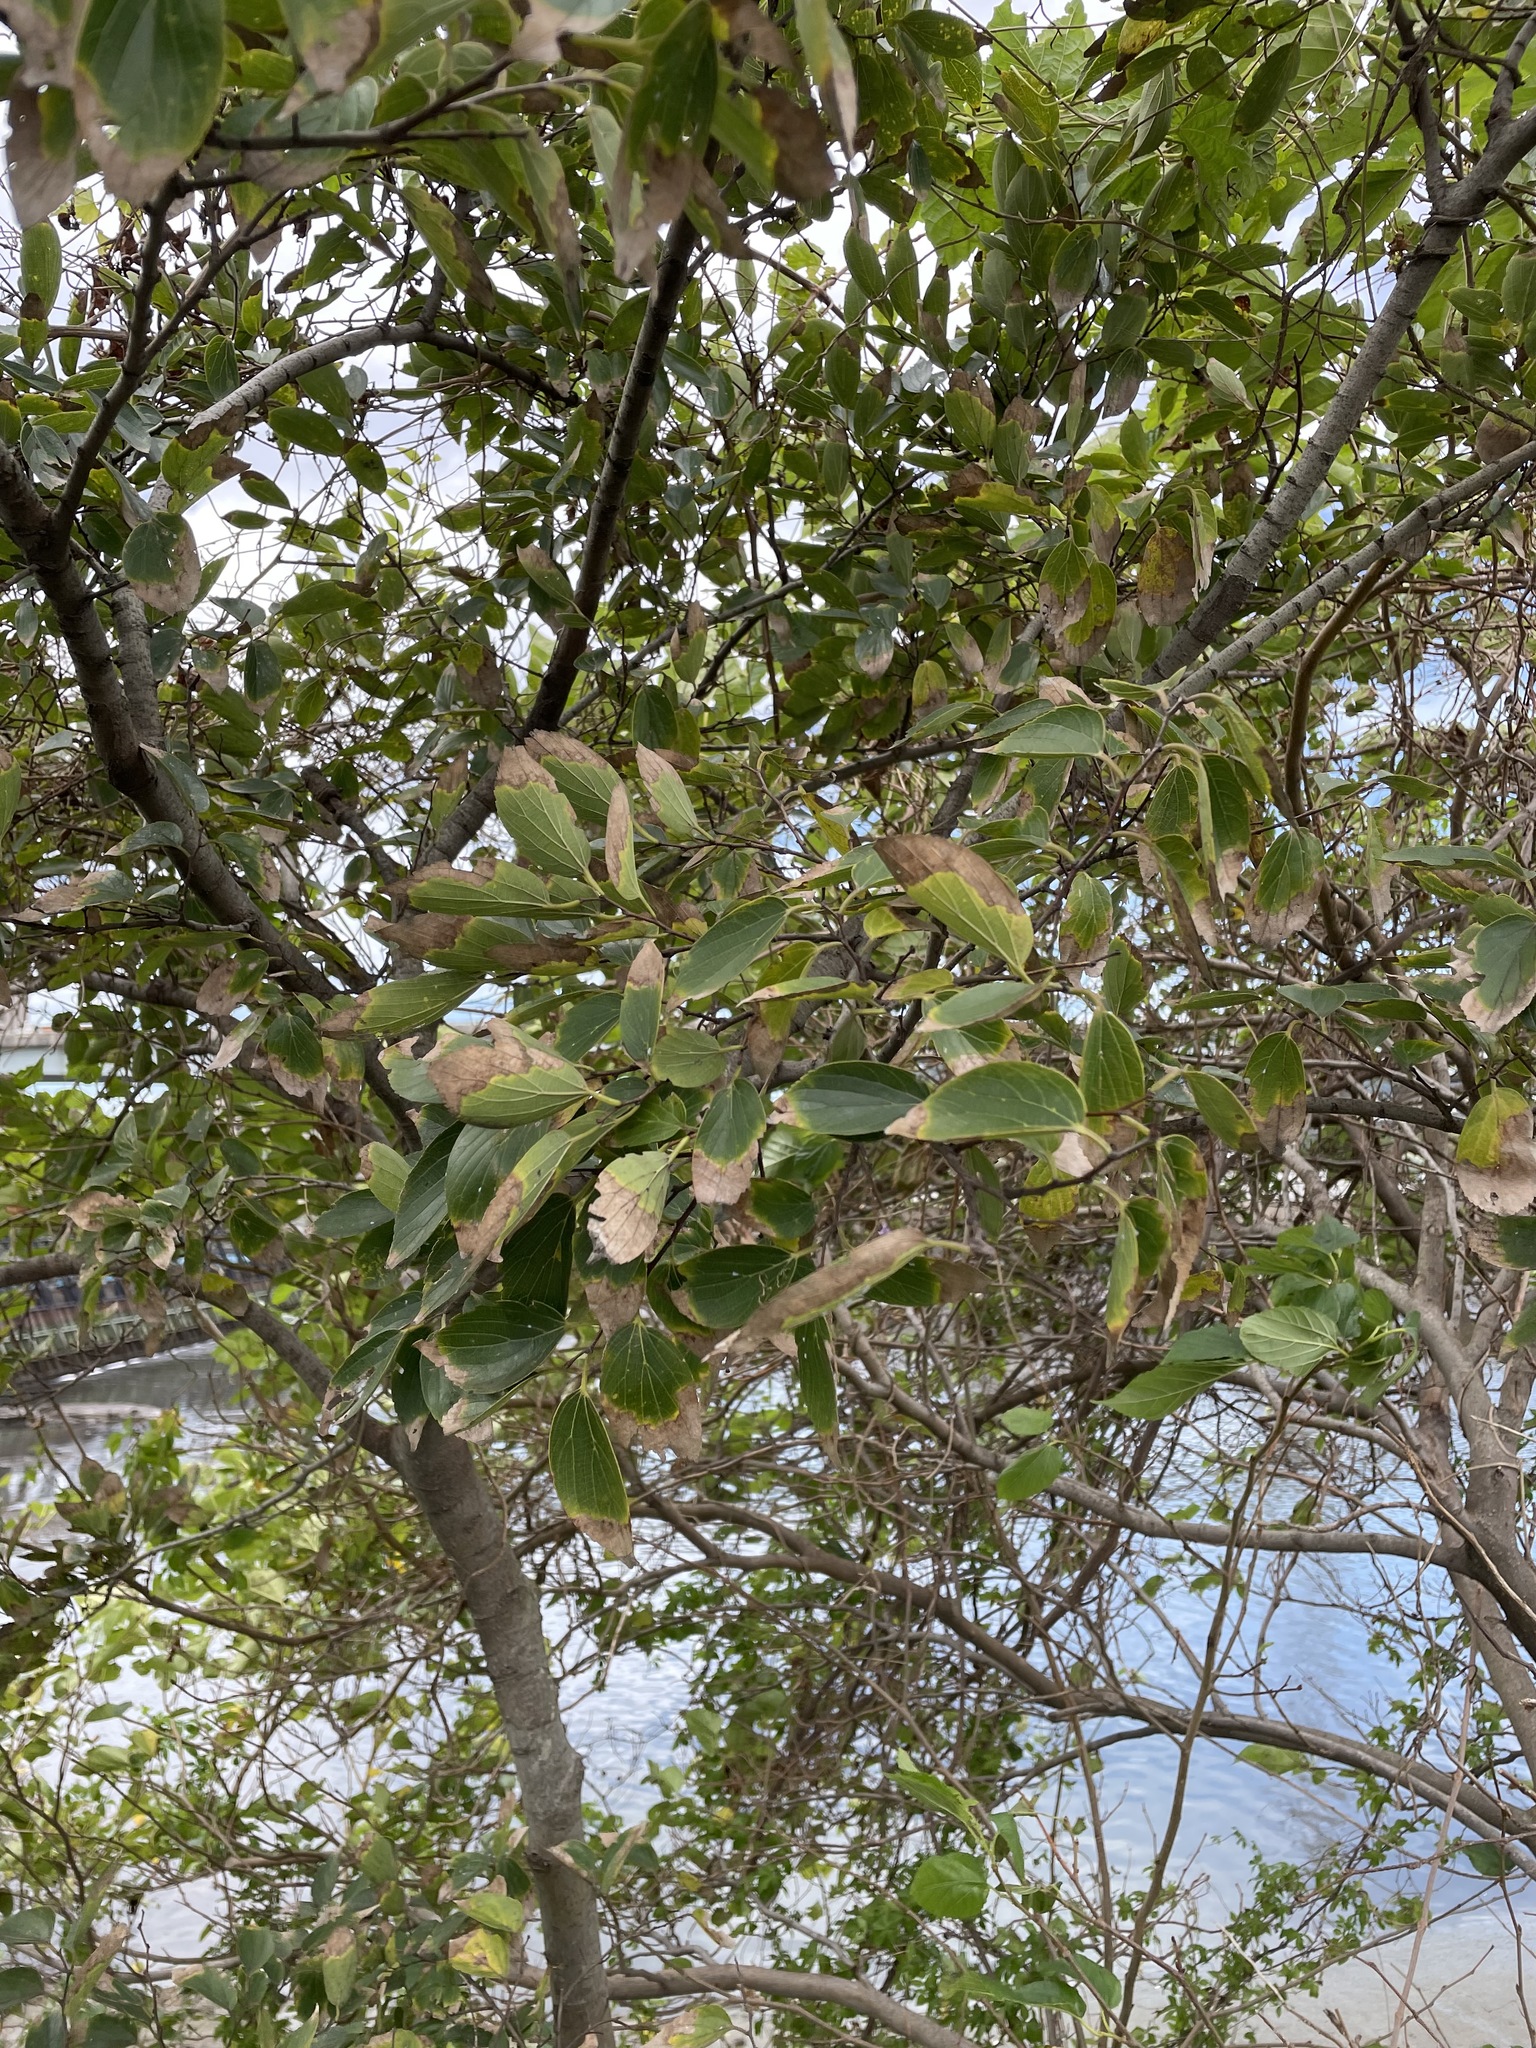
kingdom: Plantae
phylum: Tracheophyta
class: Magnoliopsida
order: Rosales
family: Cannabaceae
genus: Celtis
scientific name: Celtis sinensis
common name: Chinese hackberry
